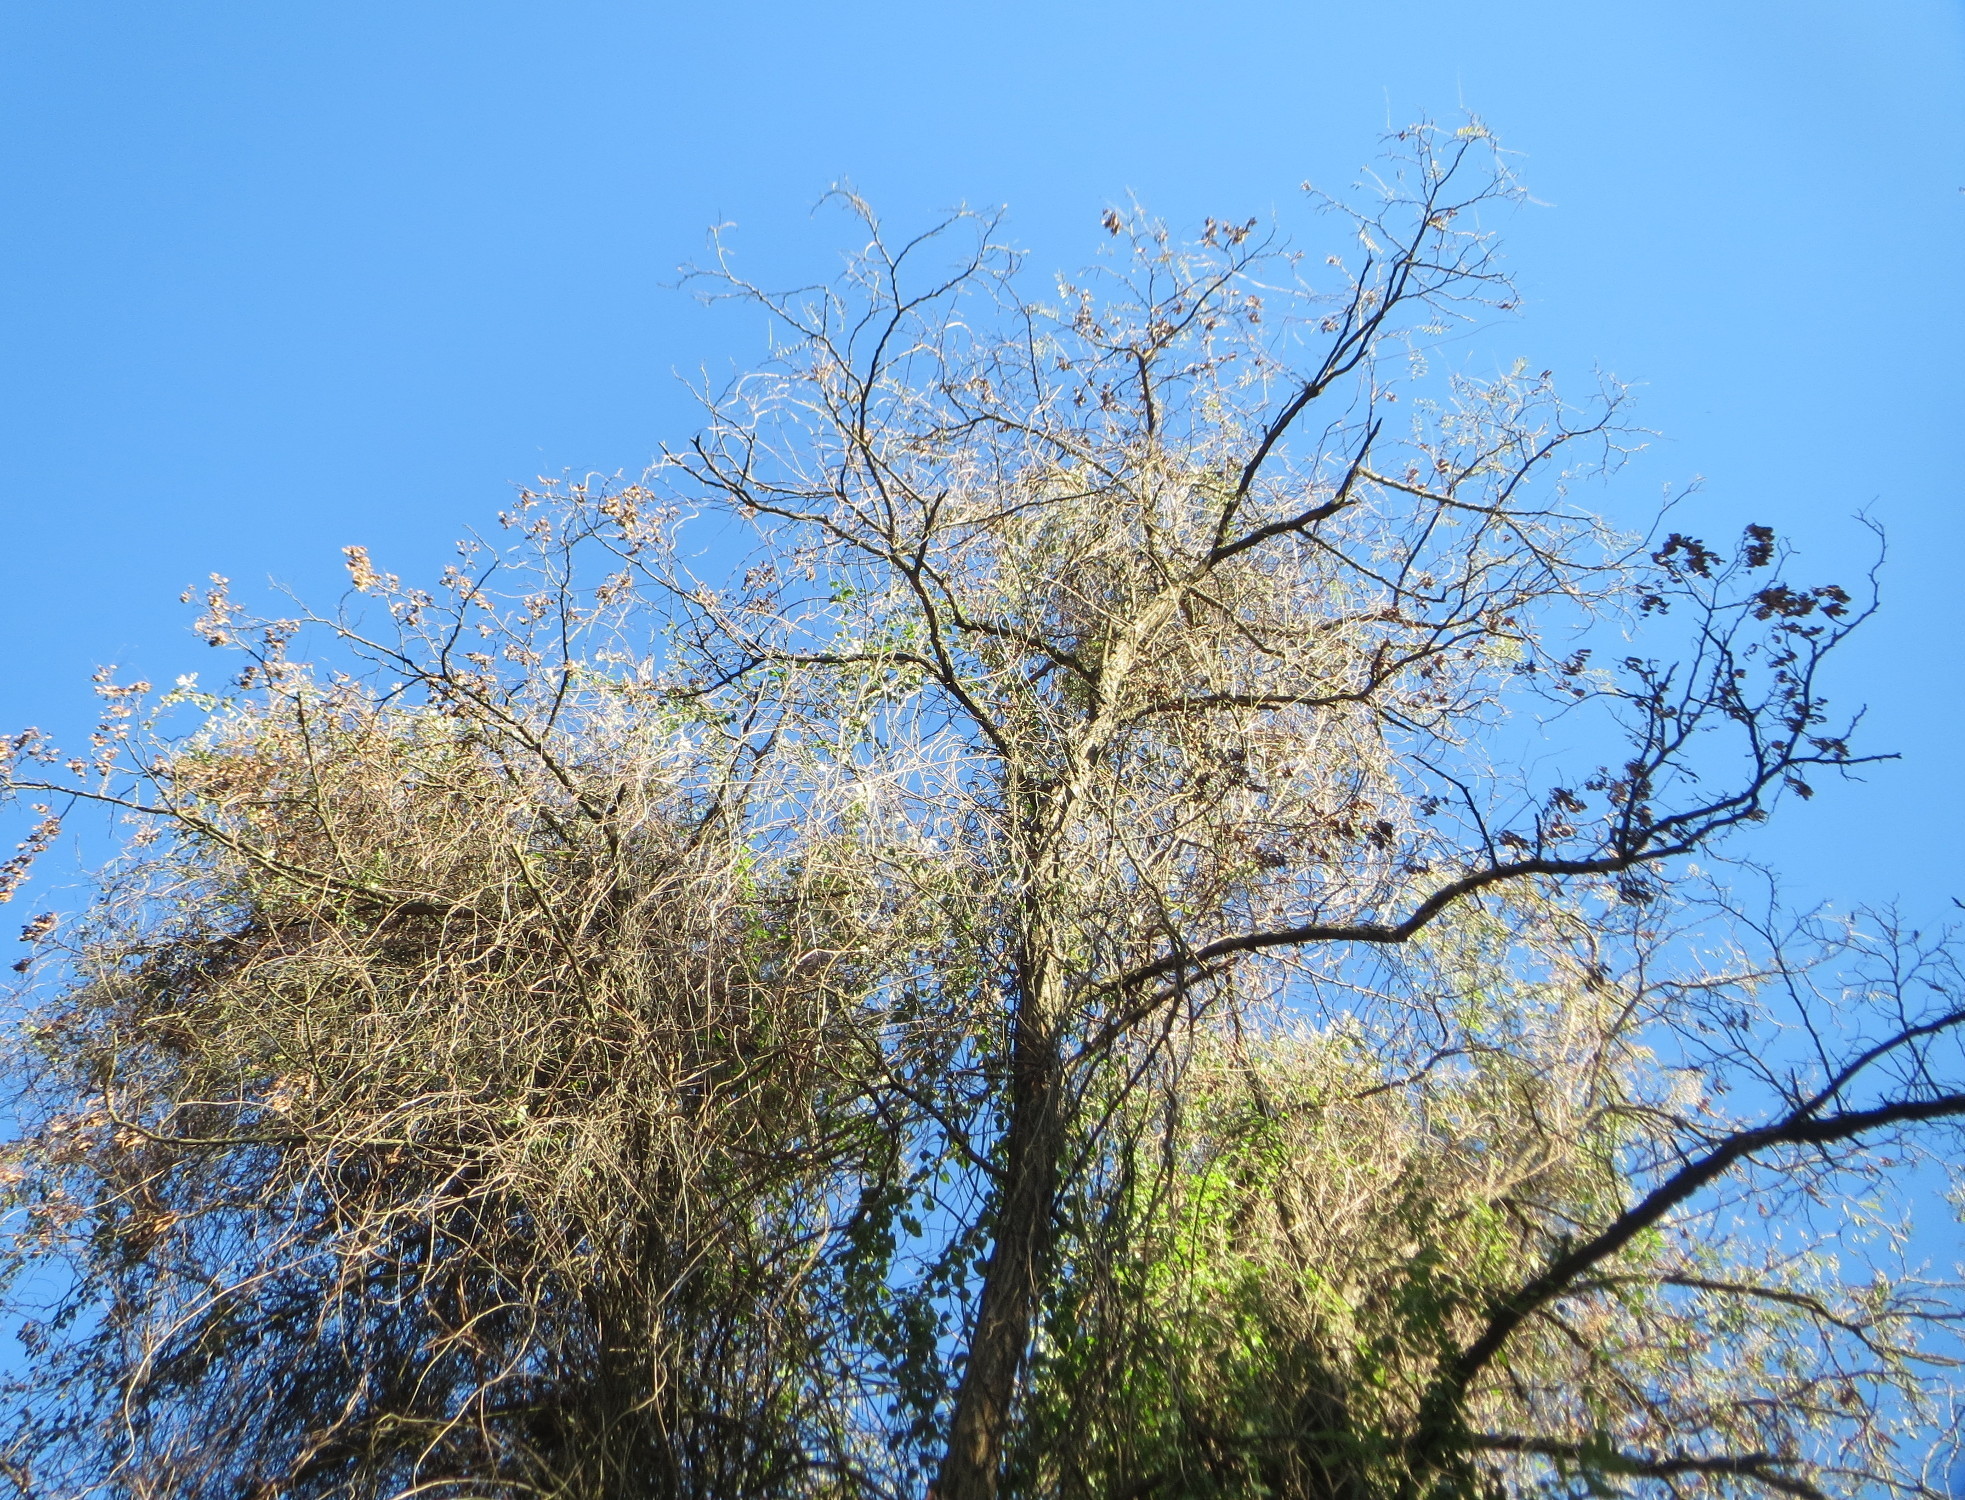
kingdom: Plantae
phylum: Tracheophyta
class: Magnoliopsida
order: Caryophyllales
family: Polygonaceae
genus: Fallopia
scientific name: Fallopia baldschuanica
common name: Russian-vine
